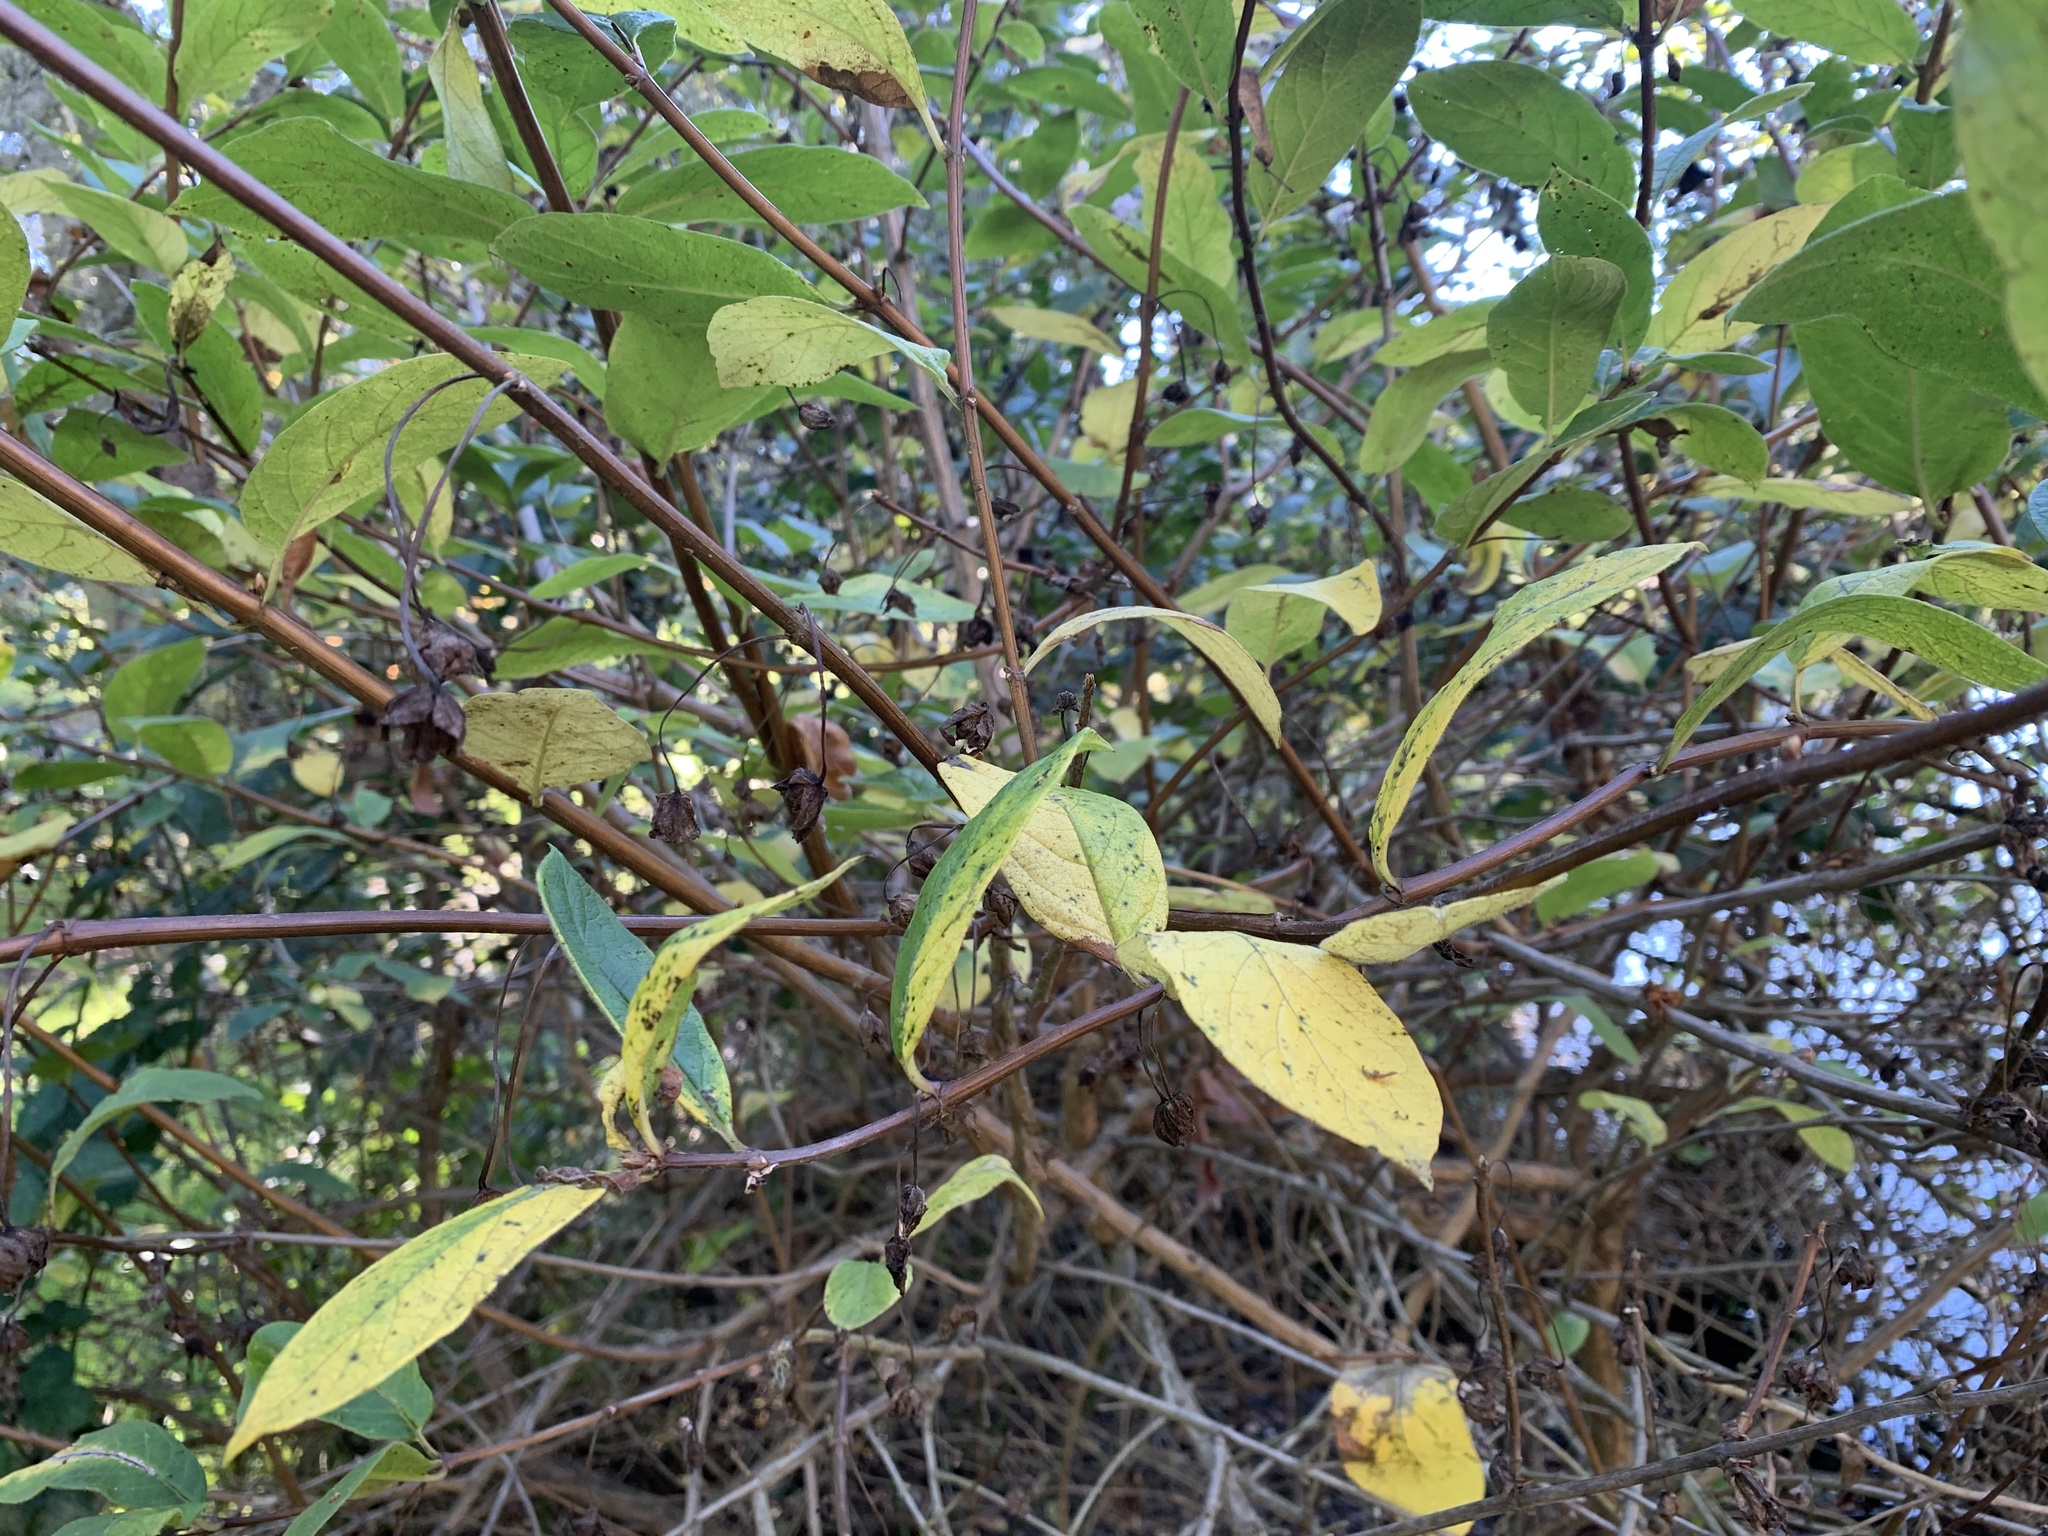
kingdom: Plantae
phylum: Tracheophyta
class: Magnoliopsida
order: Dipsacales
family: Caprifoliaceae
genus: Lonicera
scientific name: Lonicera involucrata
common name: Californian honeysuckle
